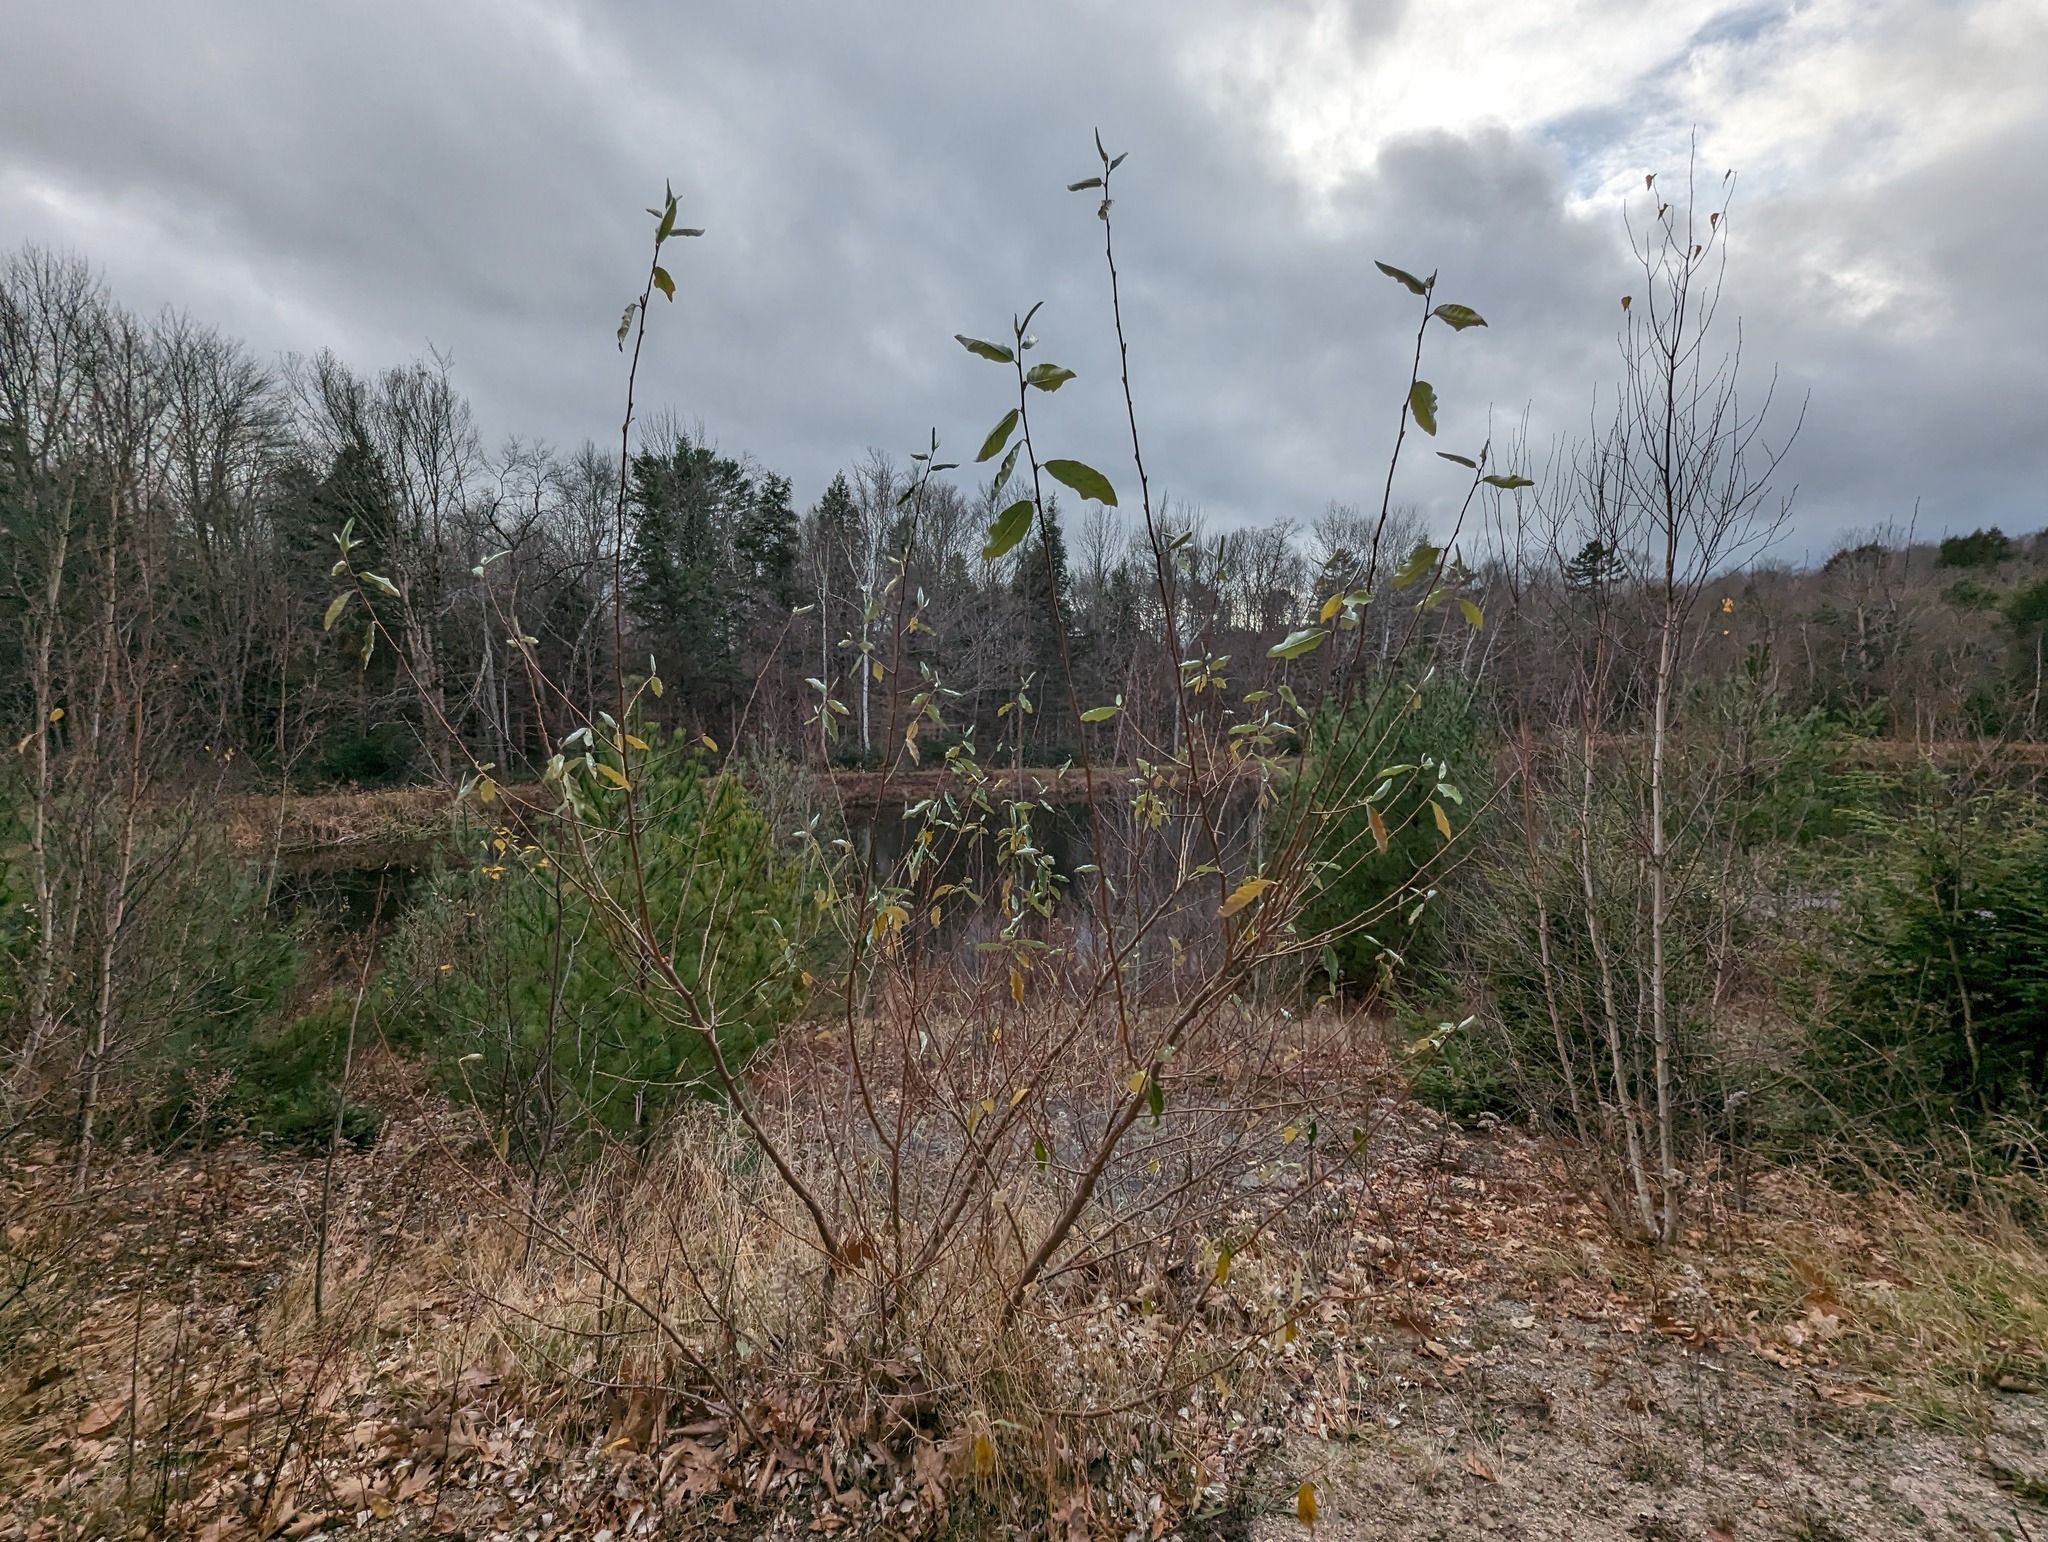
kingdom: Plantae
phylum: Tracheophyta
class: Magnoliopsida
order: Rosales
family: Elaeagnaceae
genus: Elaeagnus
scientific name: Elaeagnus umbellata
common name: Autumn olive
